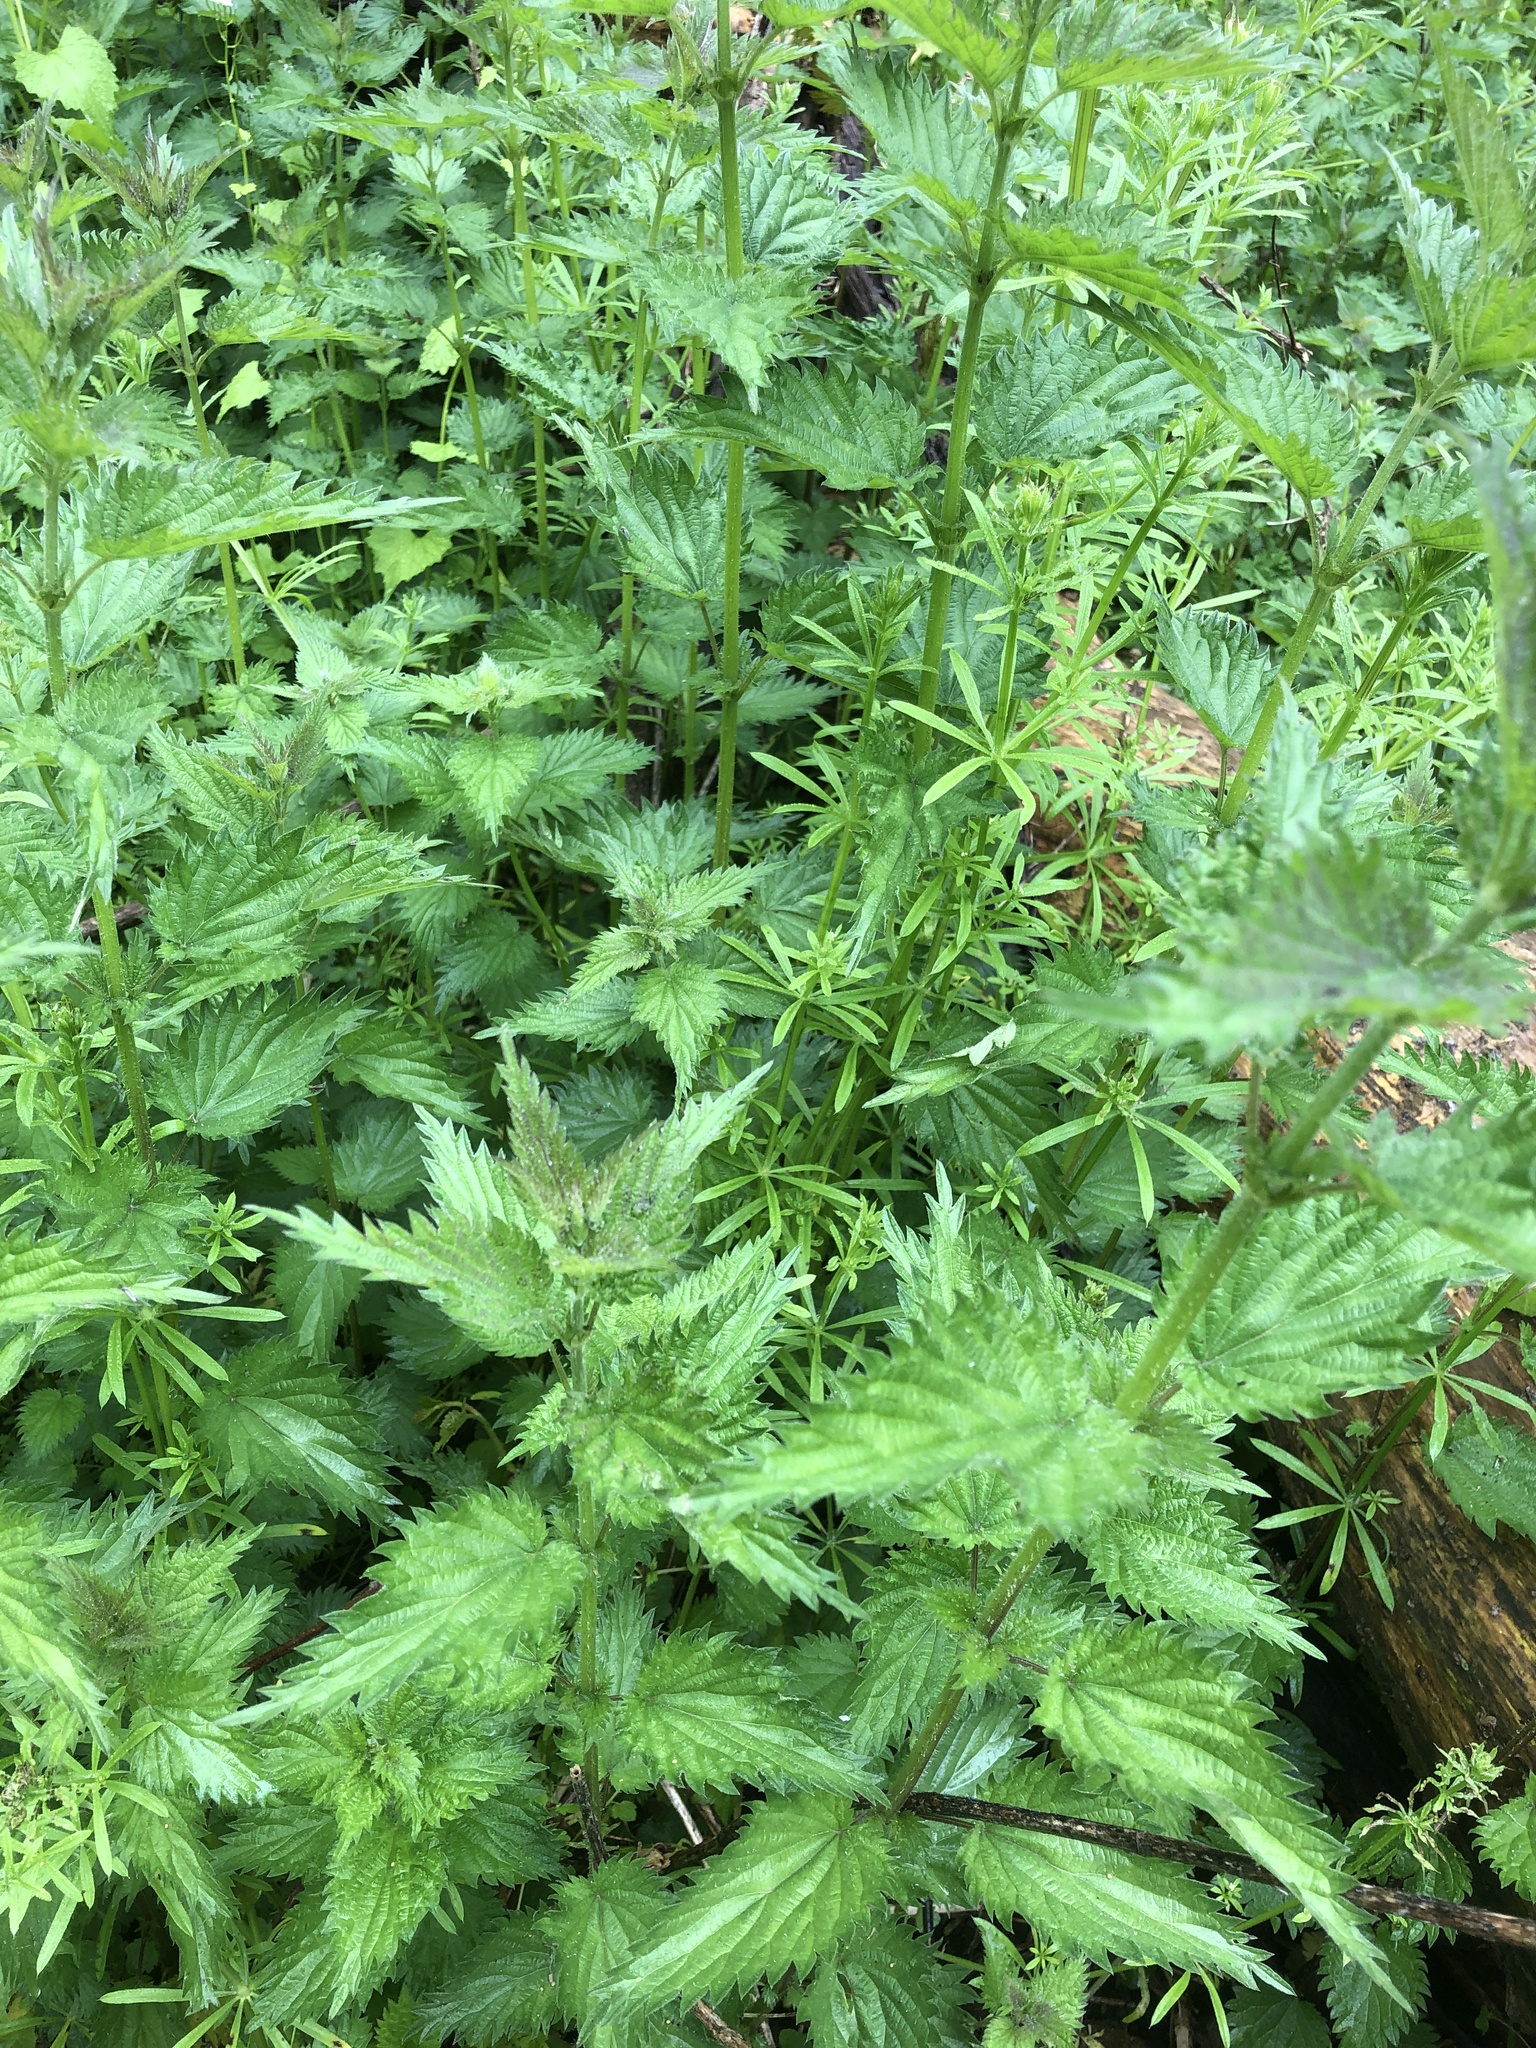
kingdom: Plantae
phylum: Tracheophyta
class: Magnoliopsida
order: Rosales
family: Urticaceae
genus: Urtica
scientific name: Urtica dioica
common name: Common nettle
